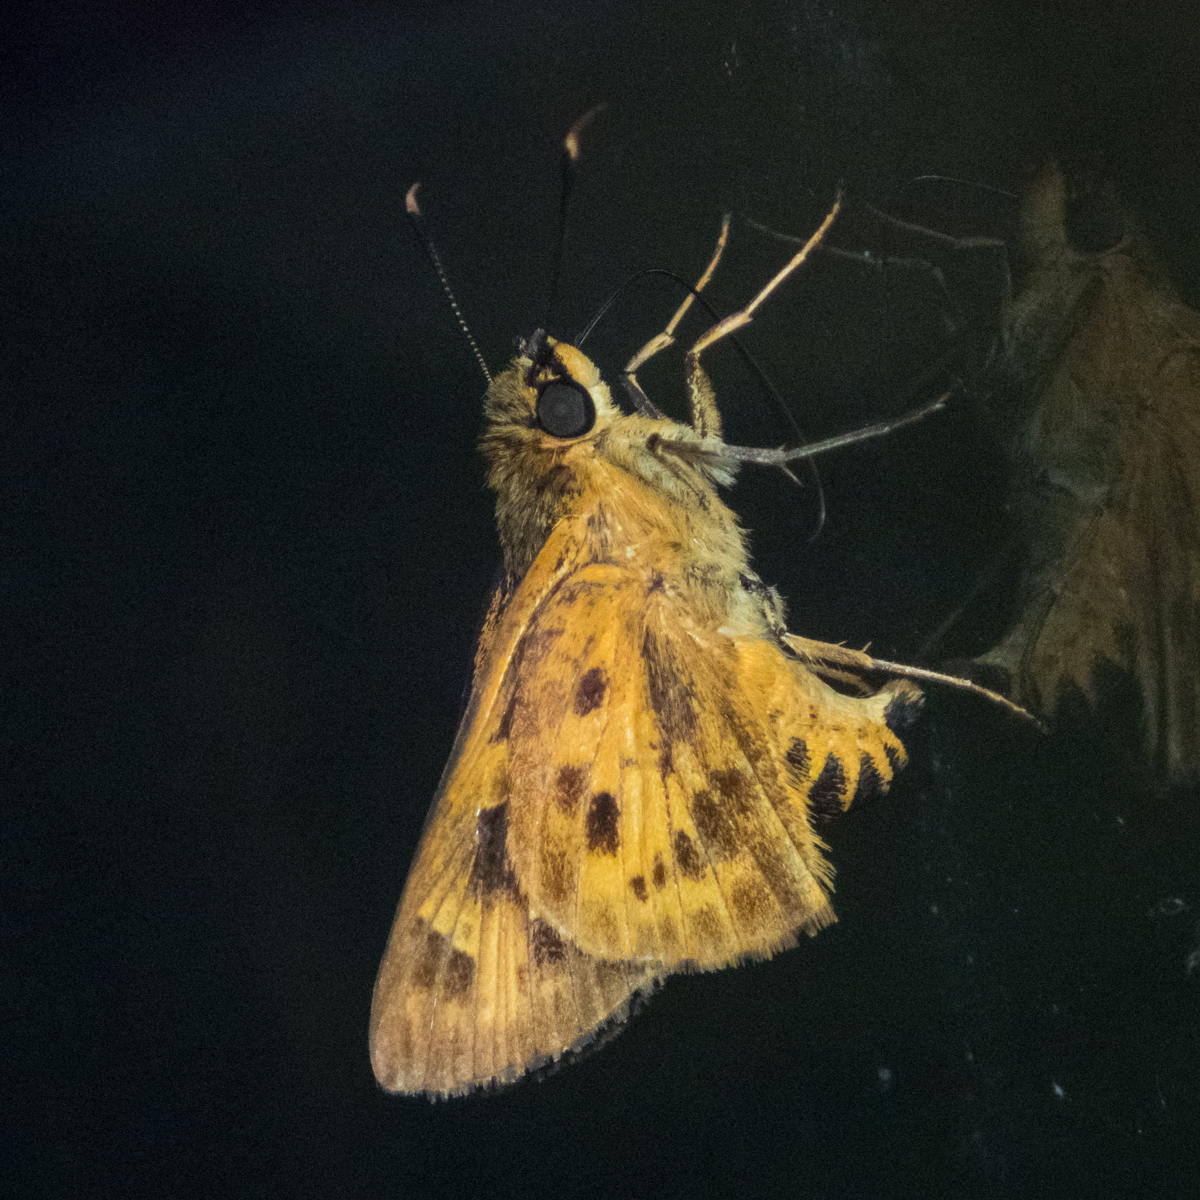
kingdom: Animalia
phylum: Arthropoda
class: Insecta
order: Lepidoptera
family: Hesperiidae
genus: Thoressa
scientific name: Thoressa masoni
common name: Golden ace
